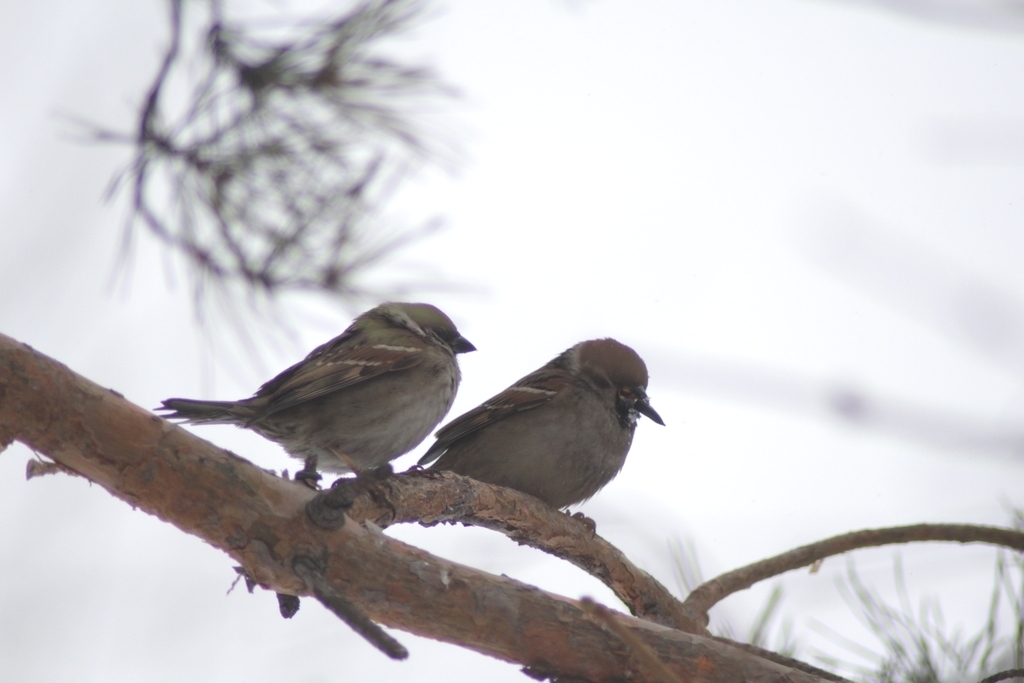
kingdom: Animalia
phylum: Chordata
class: Aves
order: Passeriformes
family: Passeridae
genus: Passer
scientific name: Passer montanus
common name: Eurasian tree sparrow
